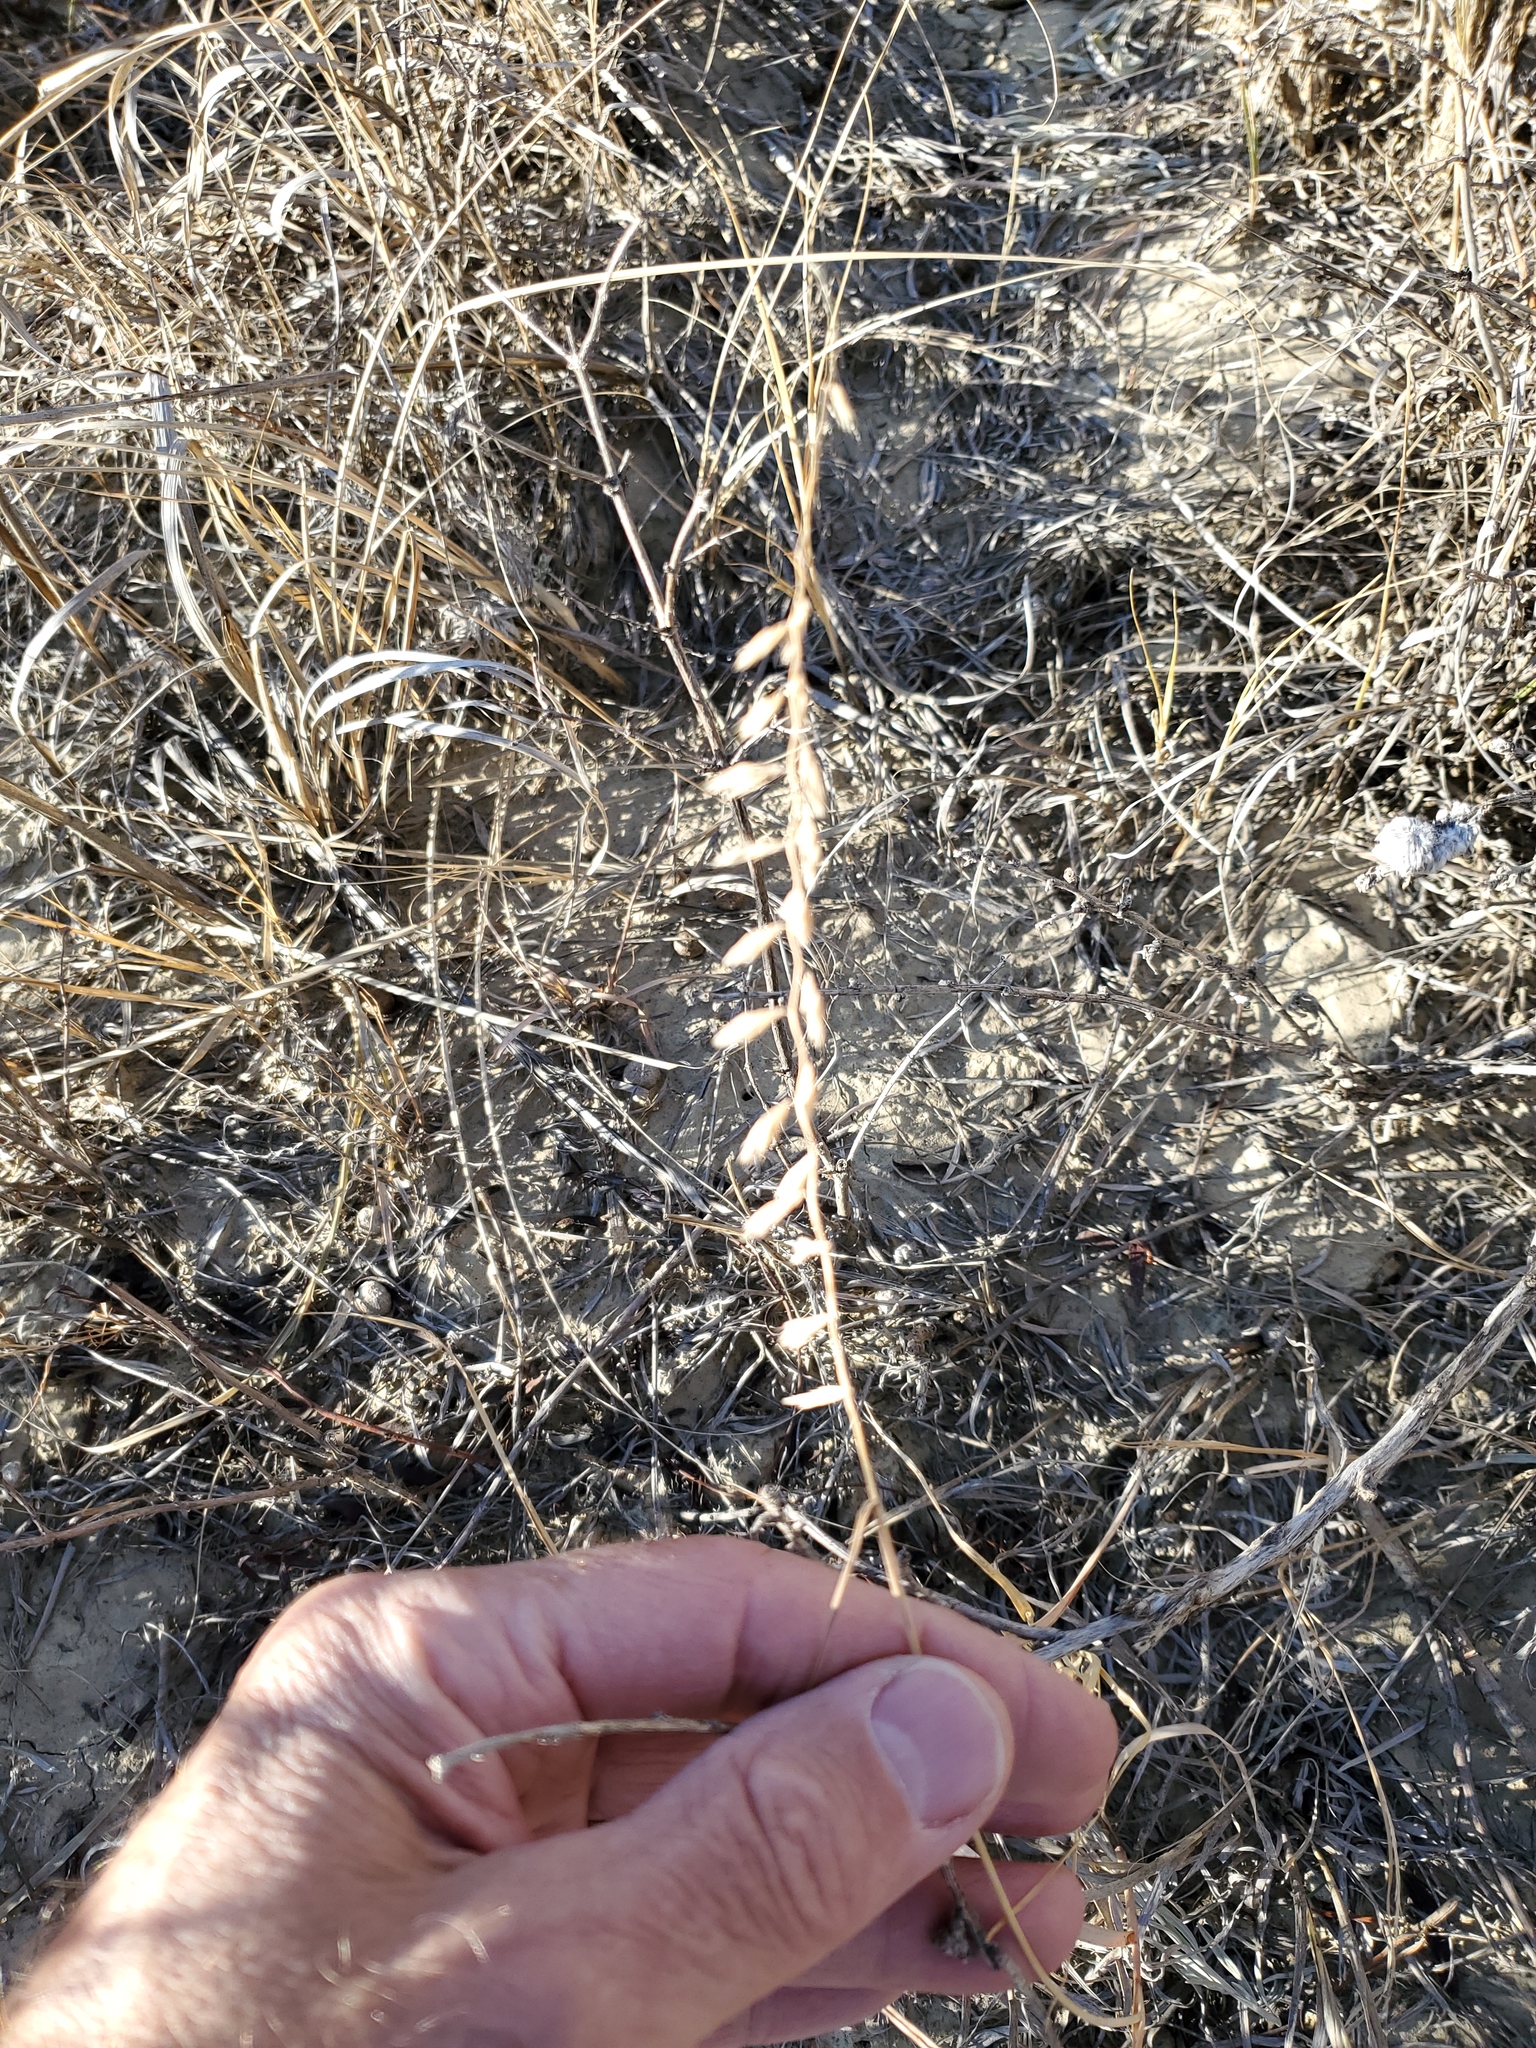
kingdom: Plantae
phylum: Tracheophyta
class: Liliopsida
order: Poales
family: Poaceae
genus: Bouteloua
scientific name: Bouteloua curtipendula
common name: Side-oats grama
